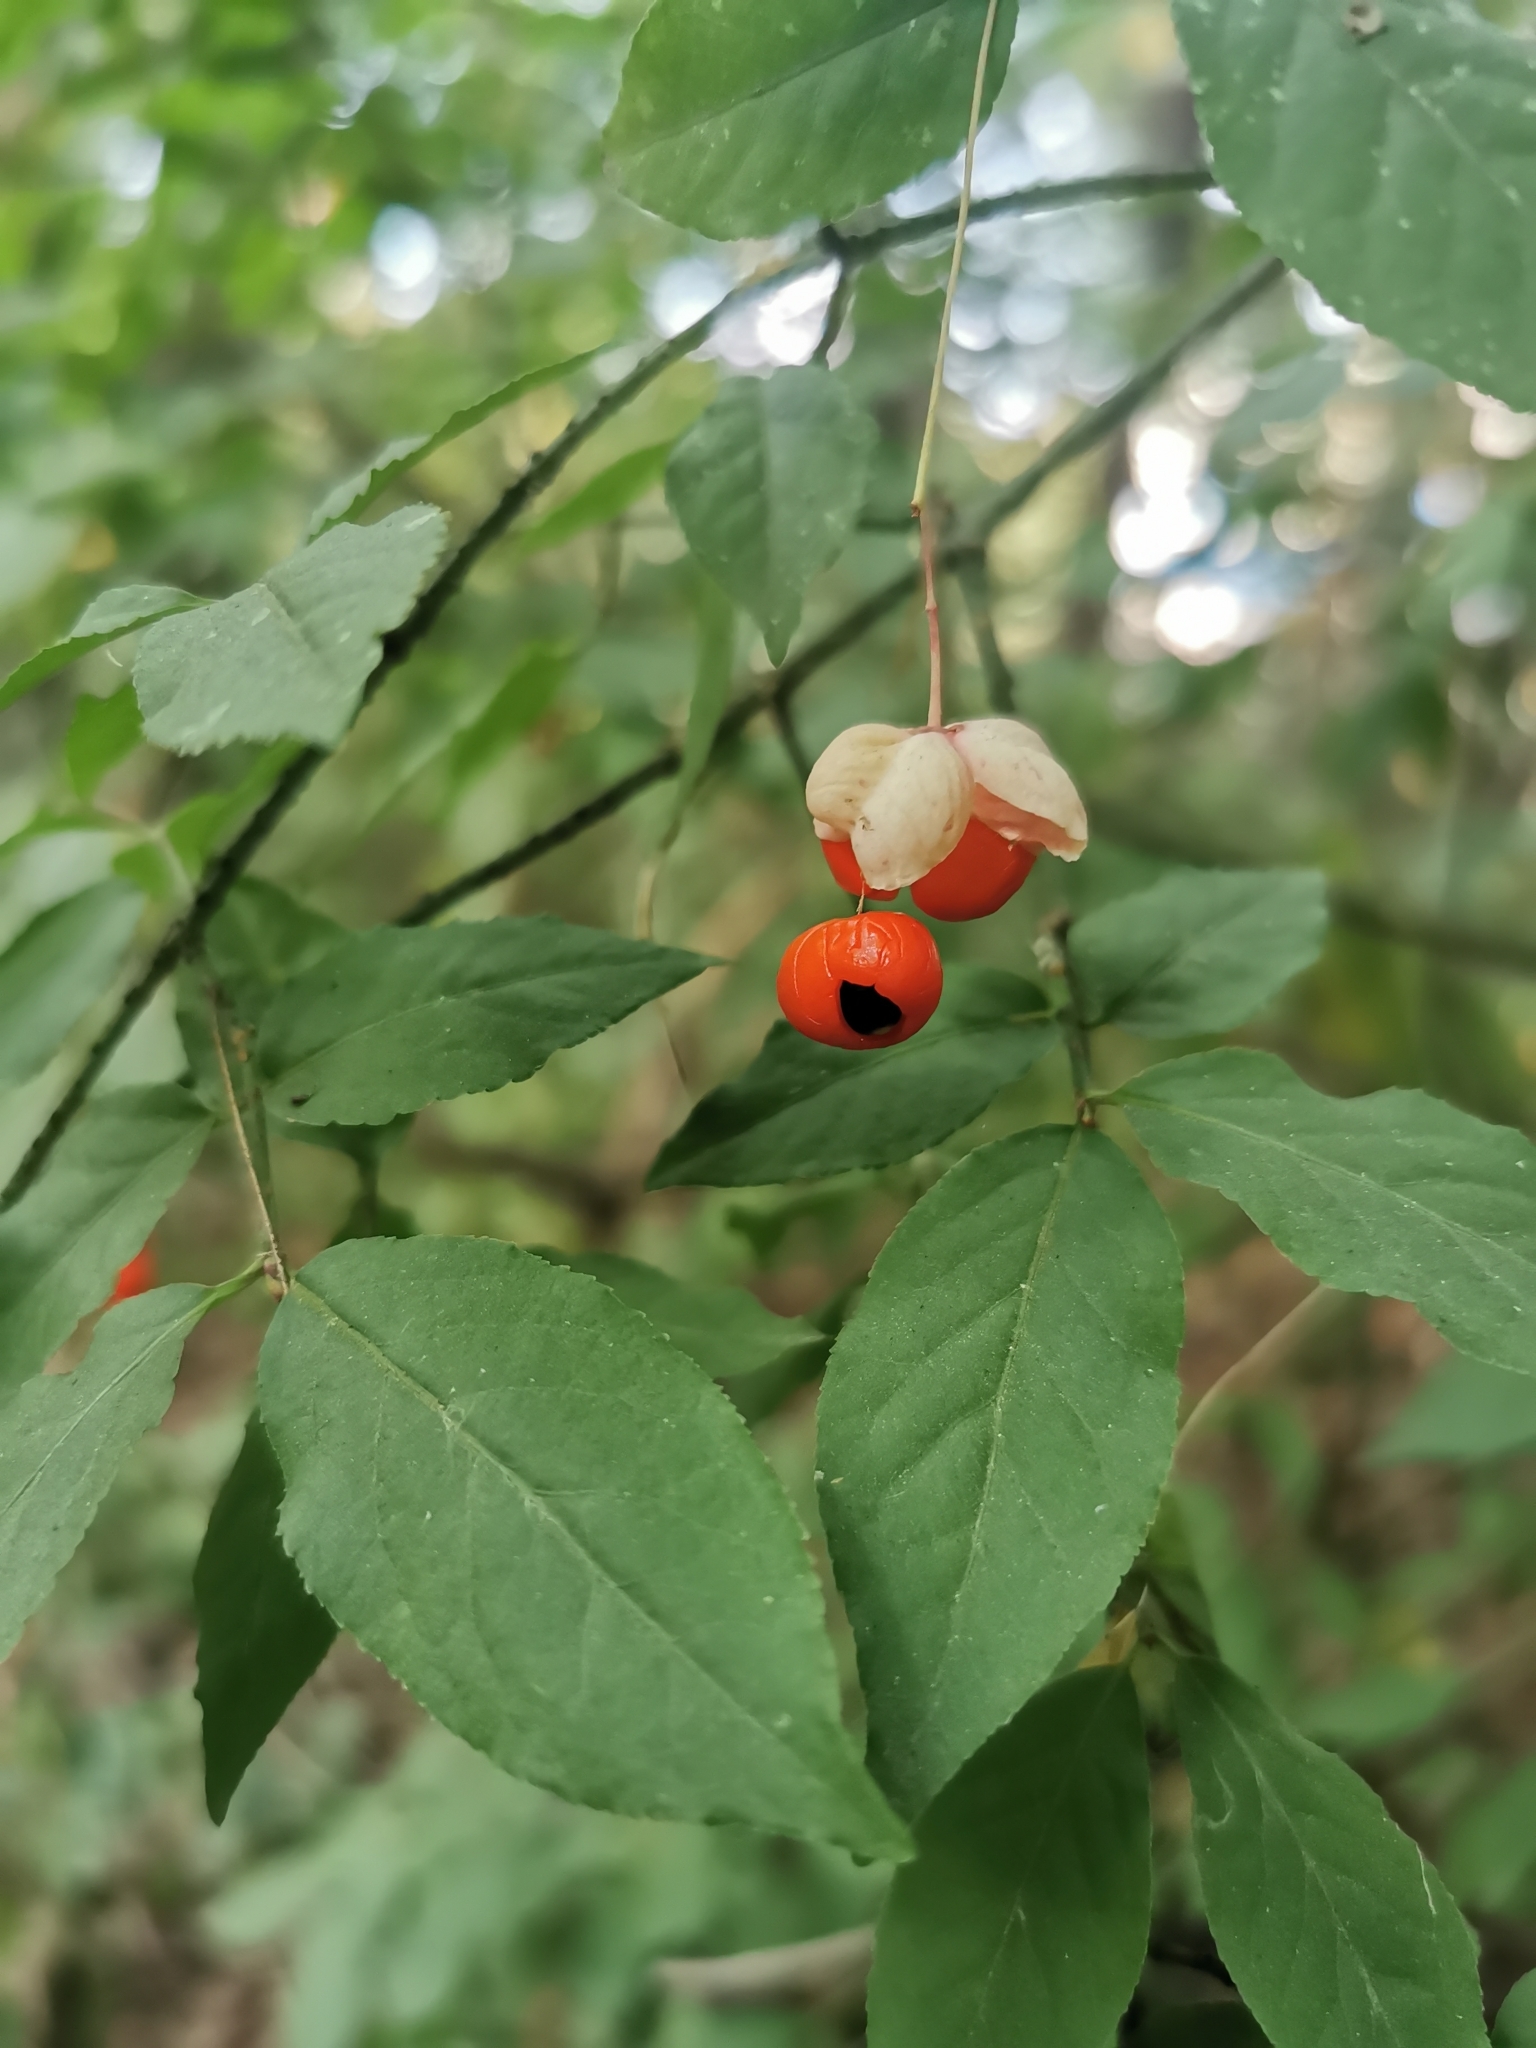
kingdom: Plantae
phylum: Tracheophyta
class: Magnoliopsida
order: Celastrales
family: Celastraceae
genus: Euonymus
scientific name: Euonymus verrucosus
